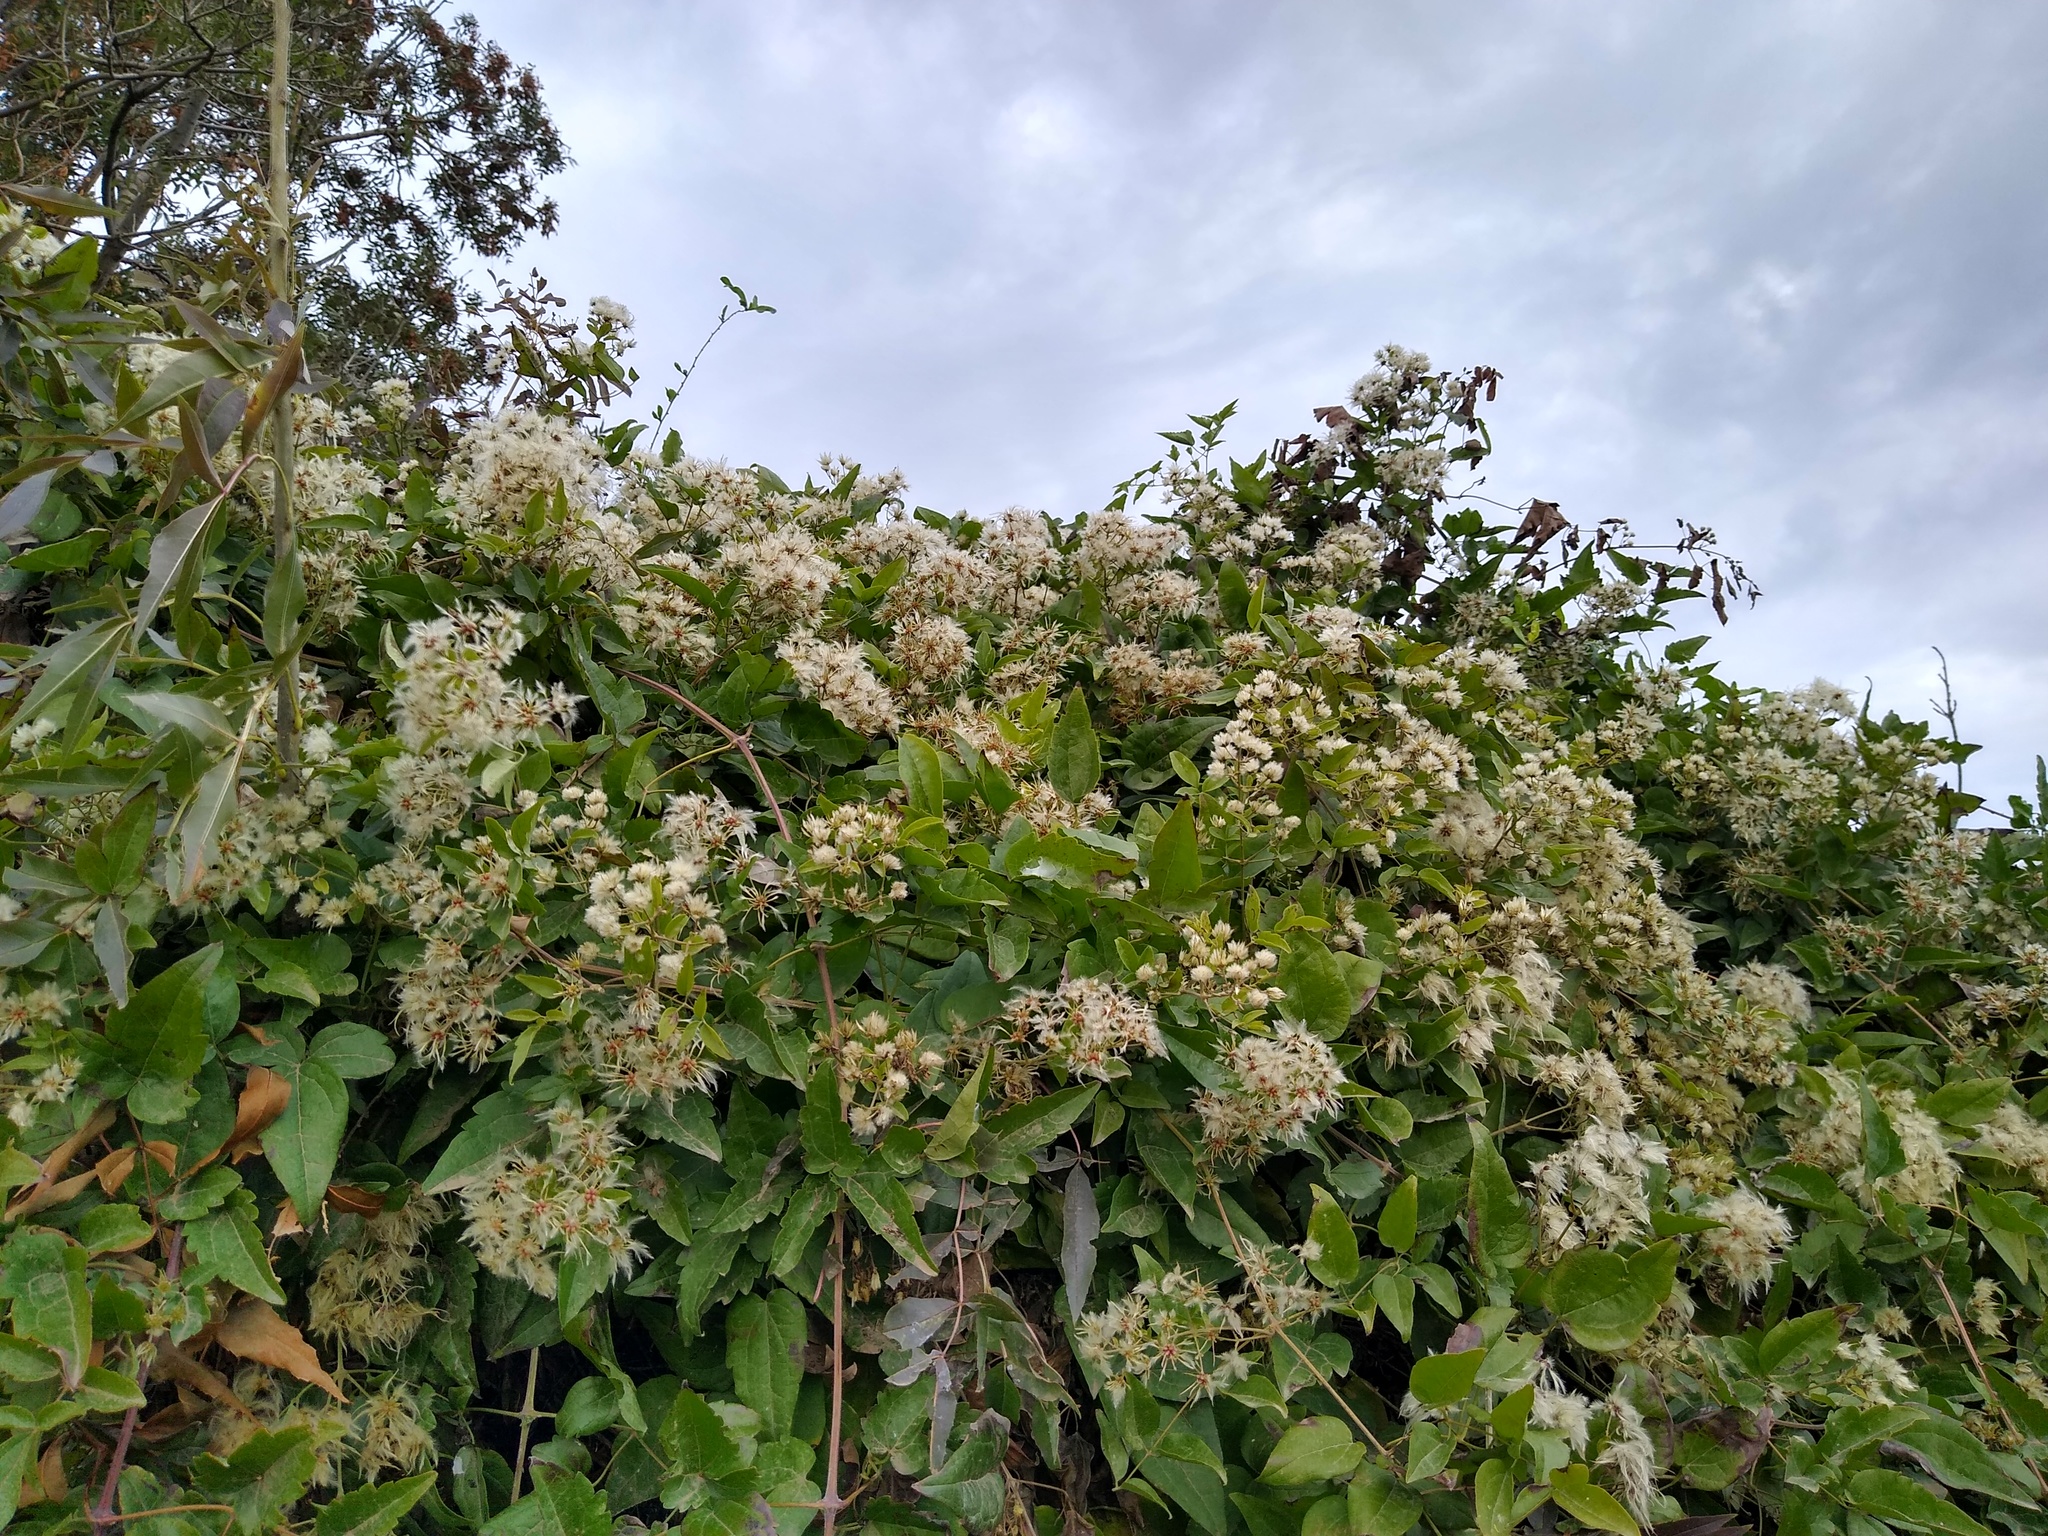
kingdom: Plantae
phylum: Tracheophyta
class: Magnoliopsida
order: Ranunculales
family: Ranunculaceae
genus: Clematis
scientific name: Clematis vitalba
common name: Evergreen clematis
